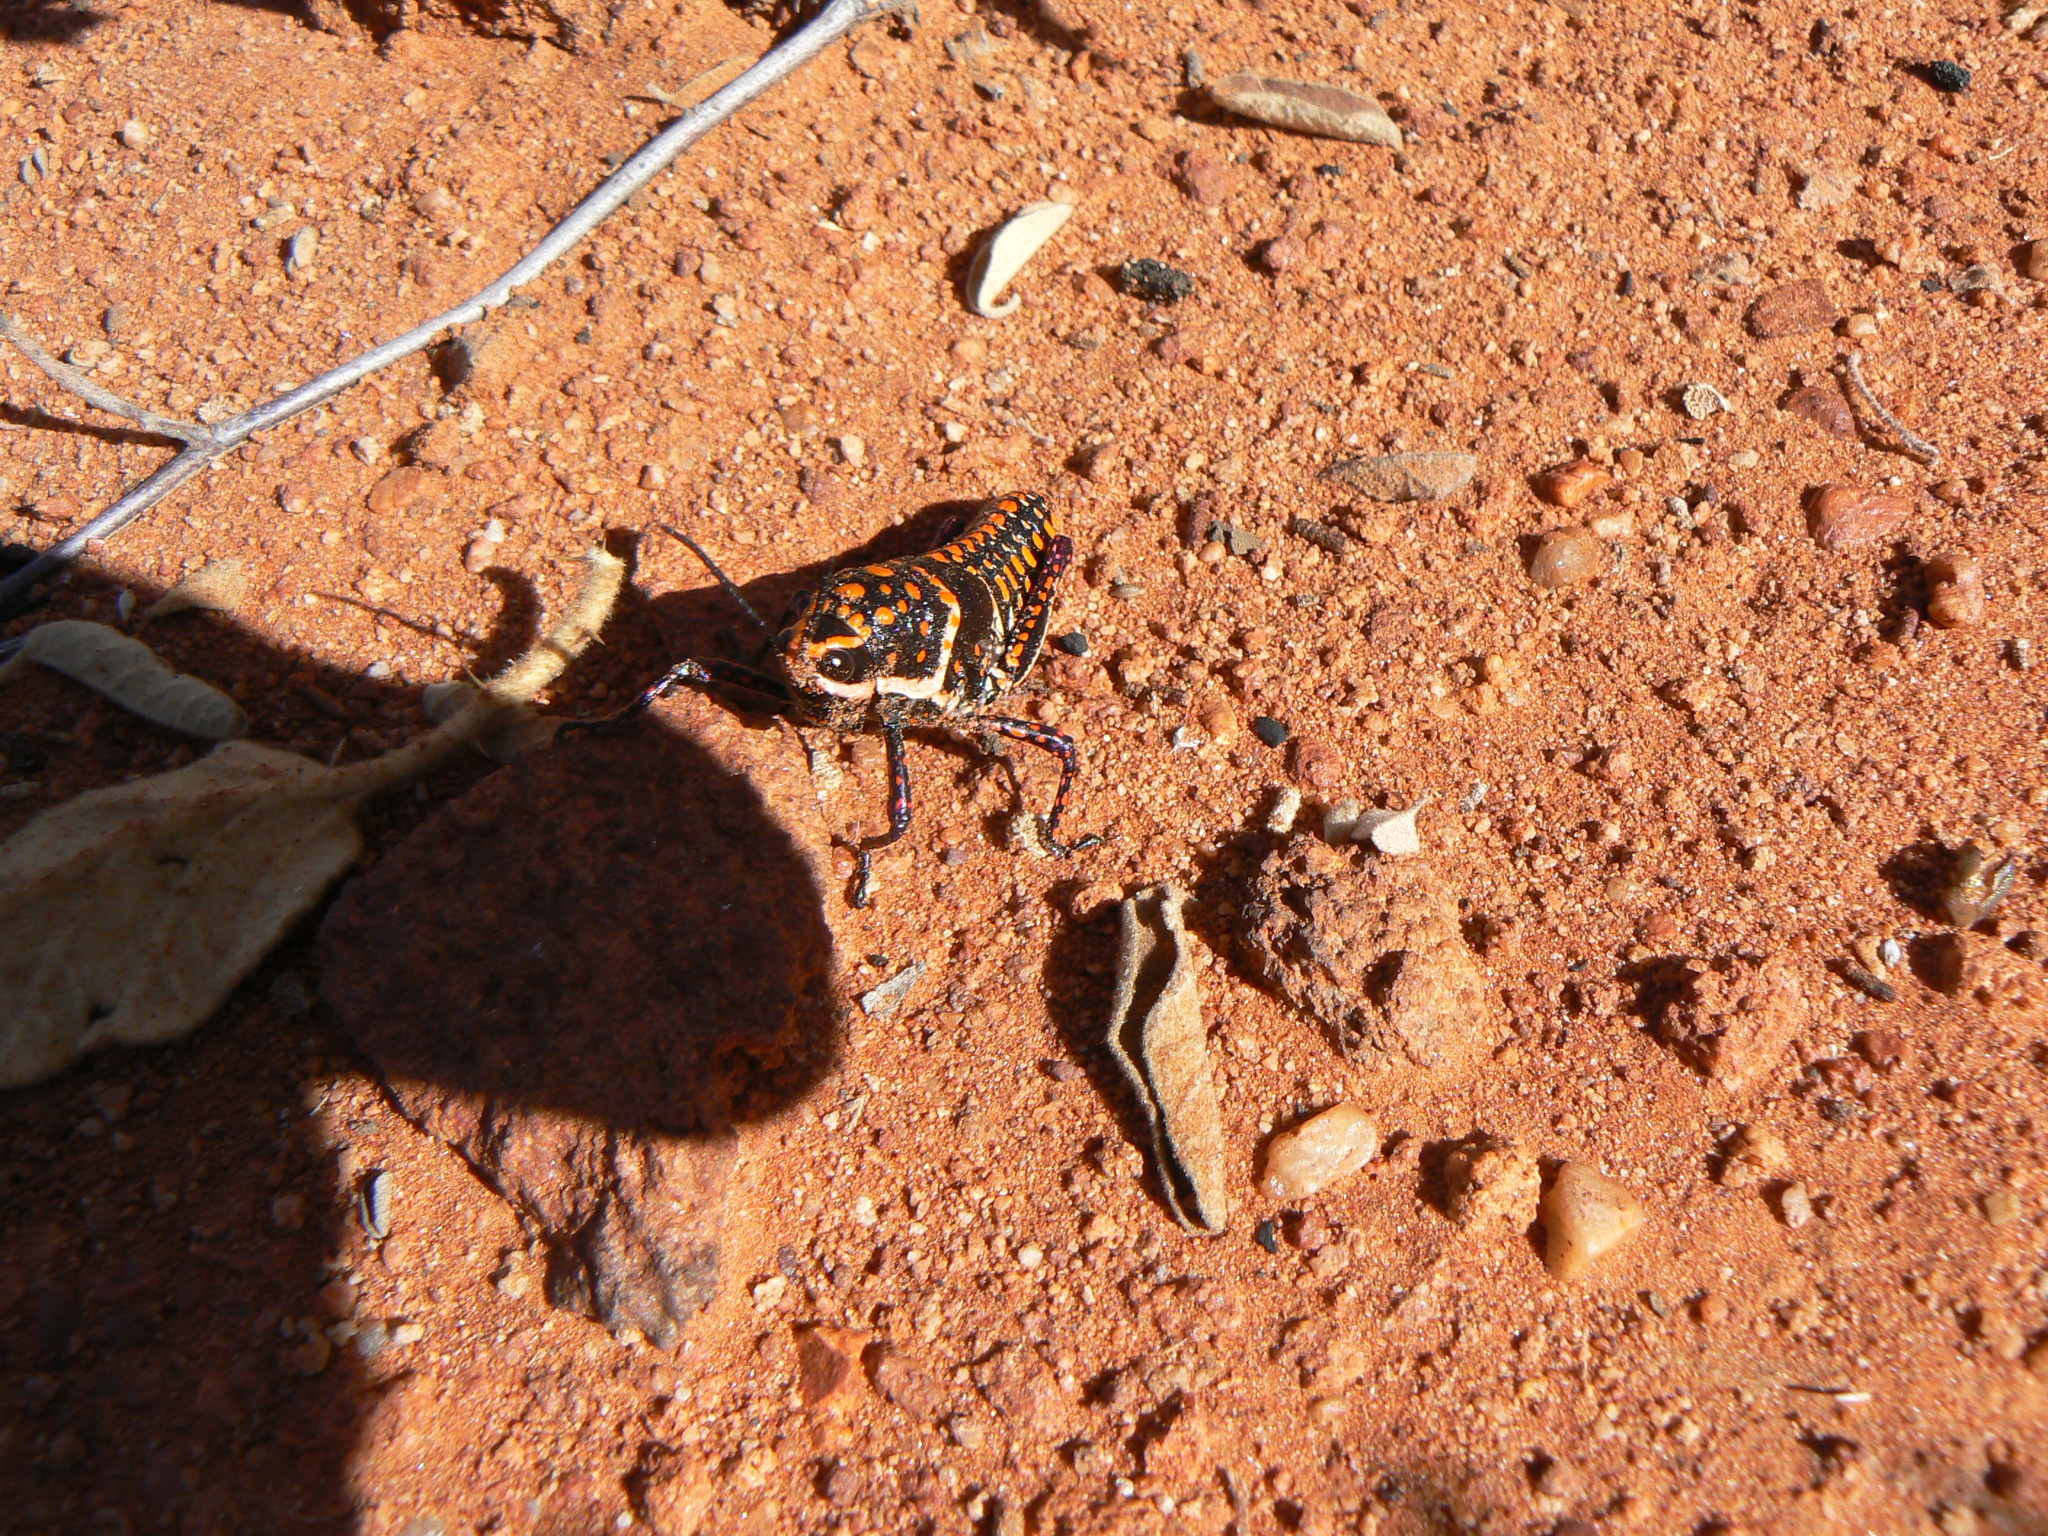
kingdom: Animalia
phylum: Arthropoda
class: Insecta
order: Orthoptera
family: Pyrgomorphidae
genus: Greyacris
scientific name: Greyacris picta
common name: Painted pyromorph
